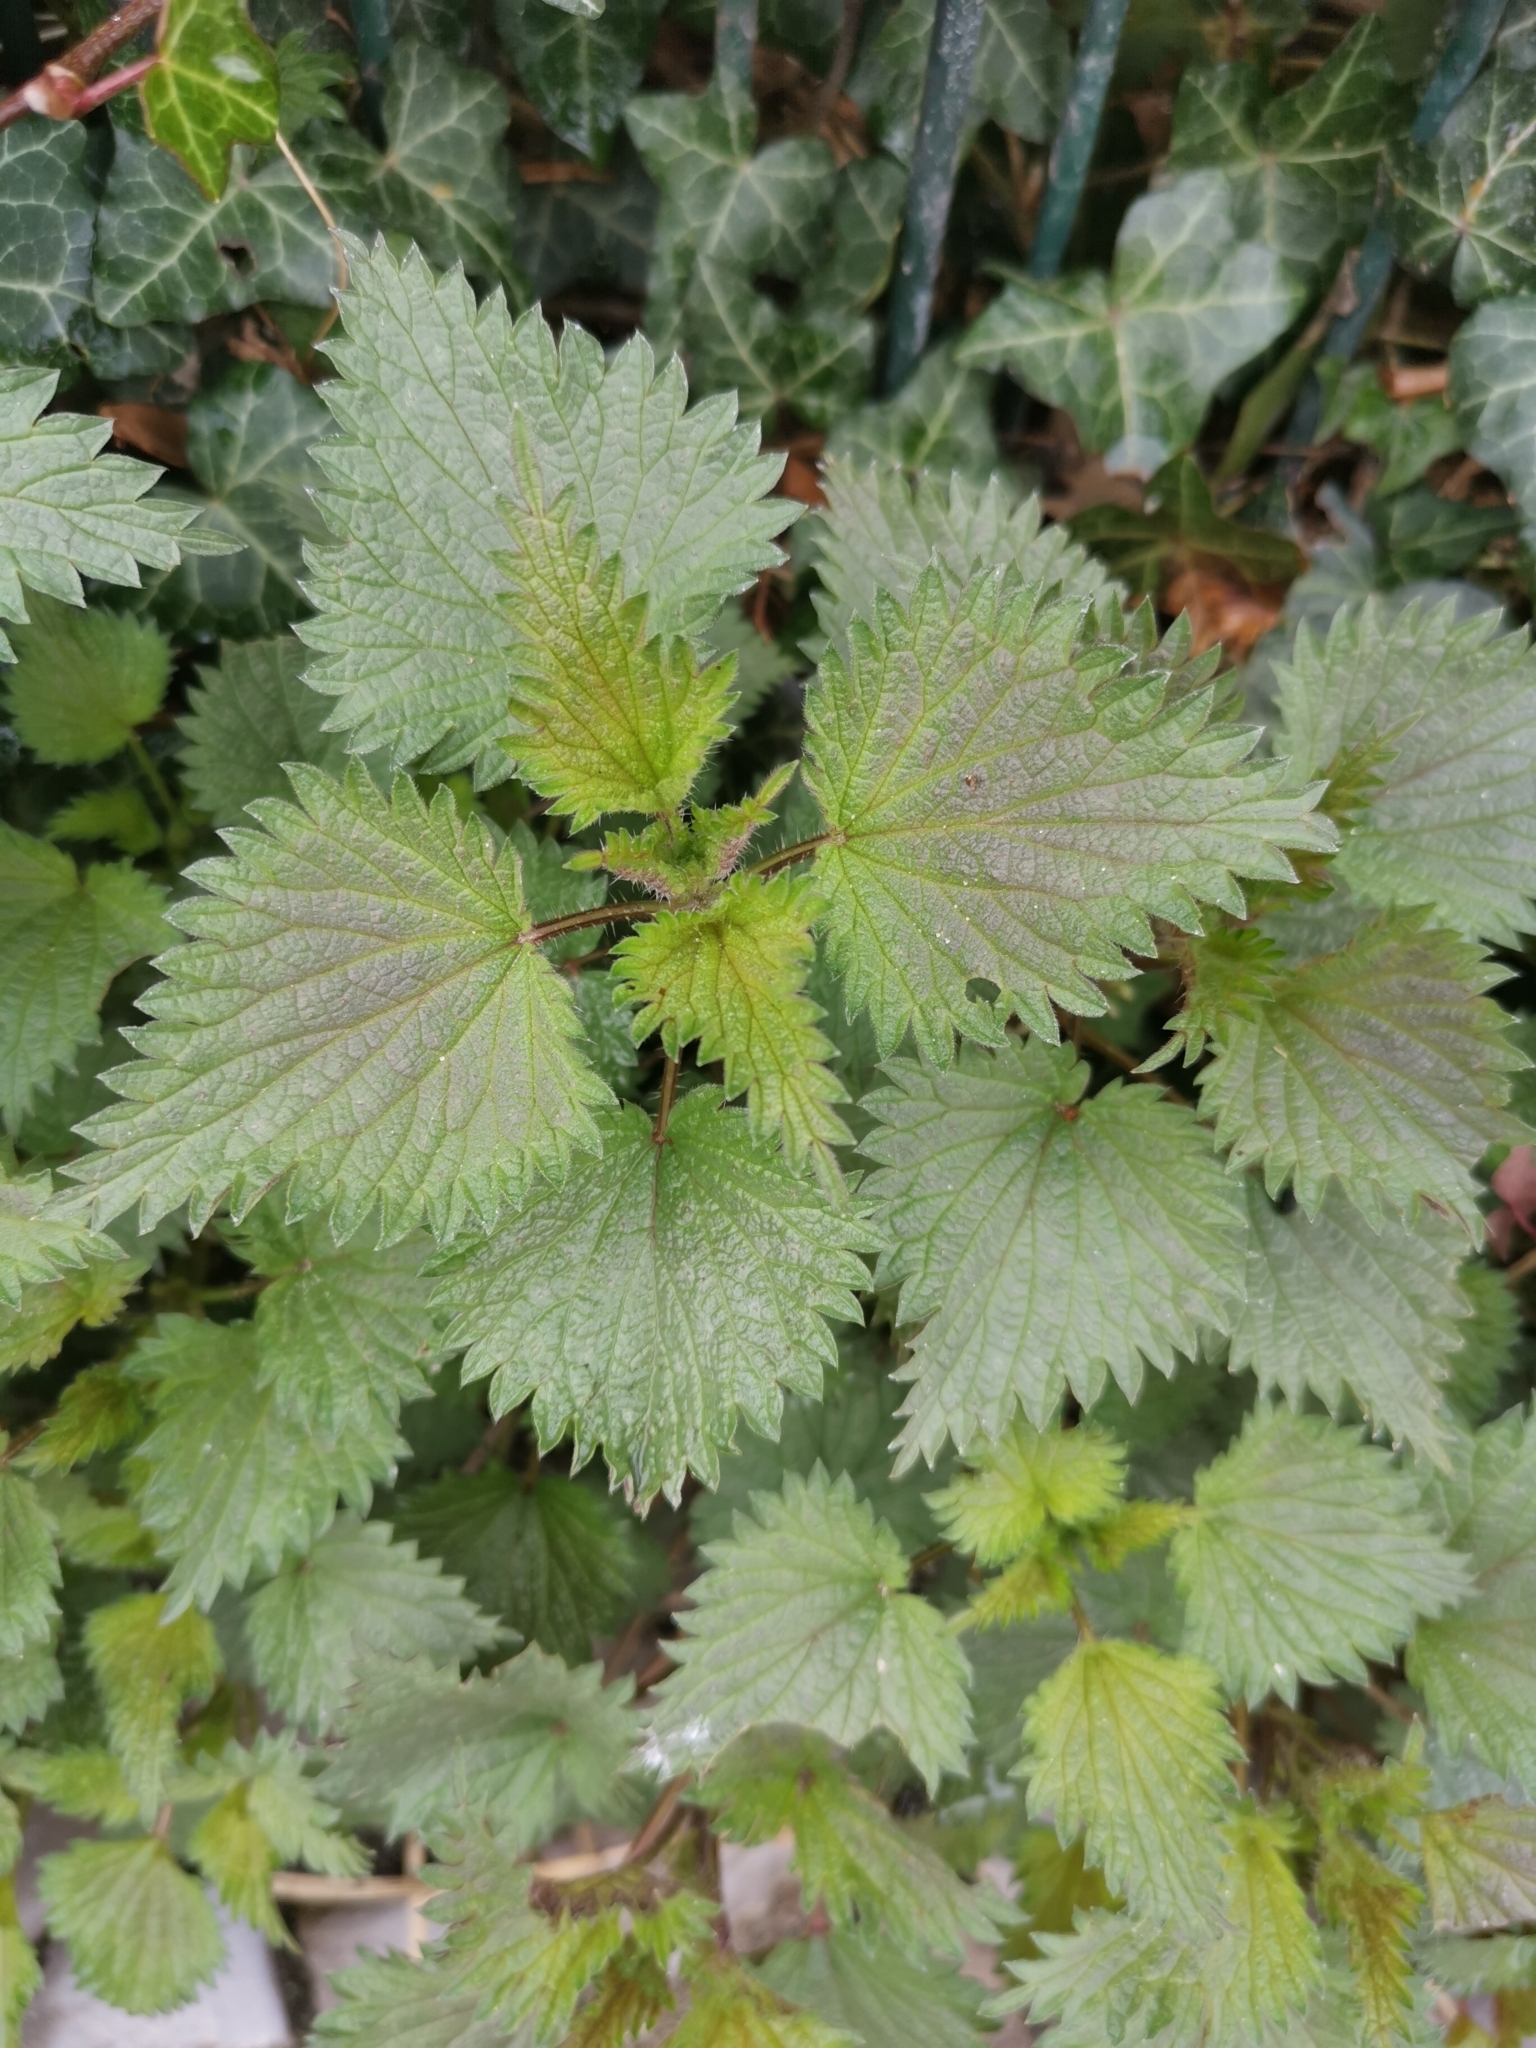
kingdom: Plantae
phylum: Tracheophyta
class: Magnoliopsida
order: Rosales
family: Urticaceae
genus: Urtica
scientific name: Urtica dioica
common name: Common nettle
